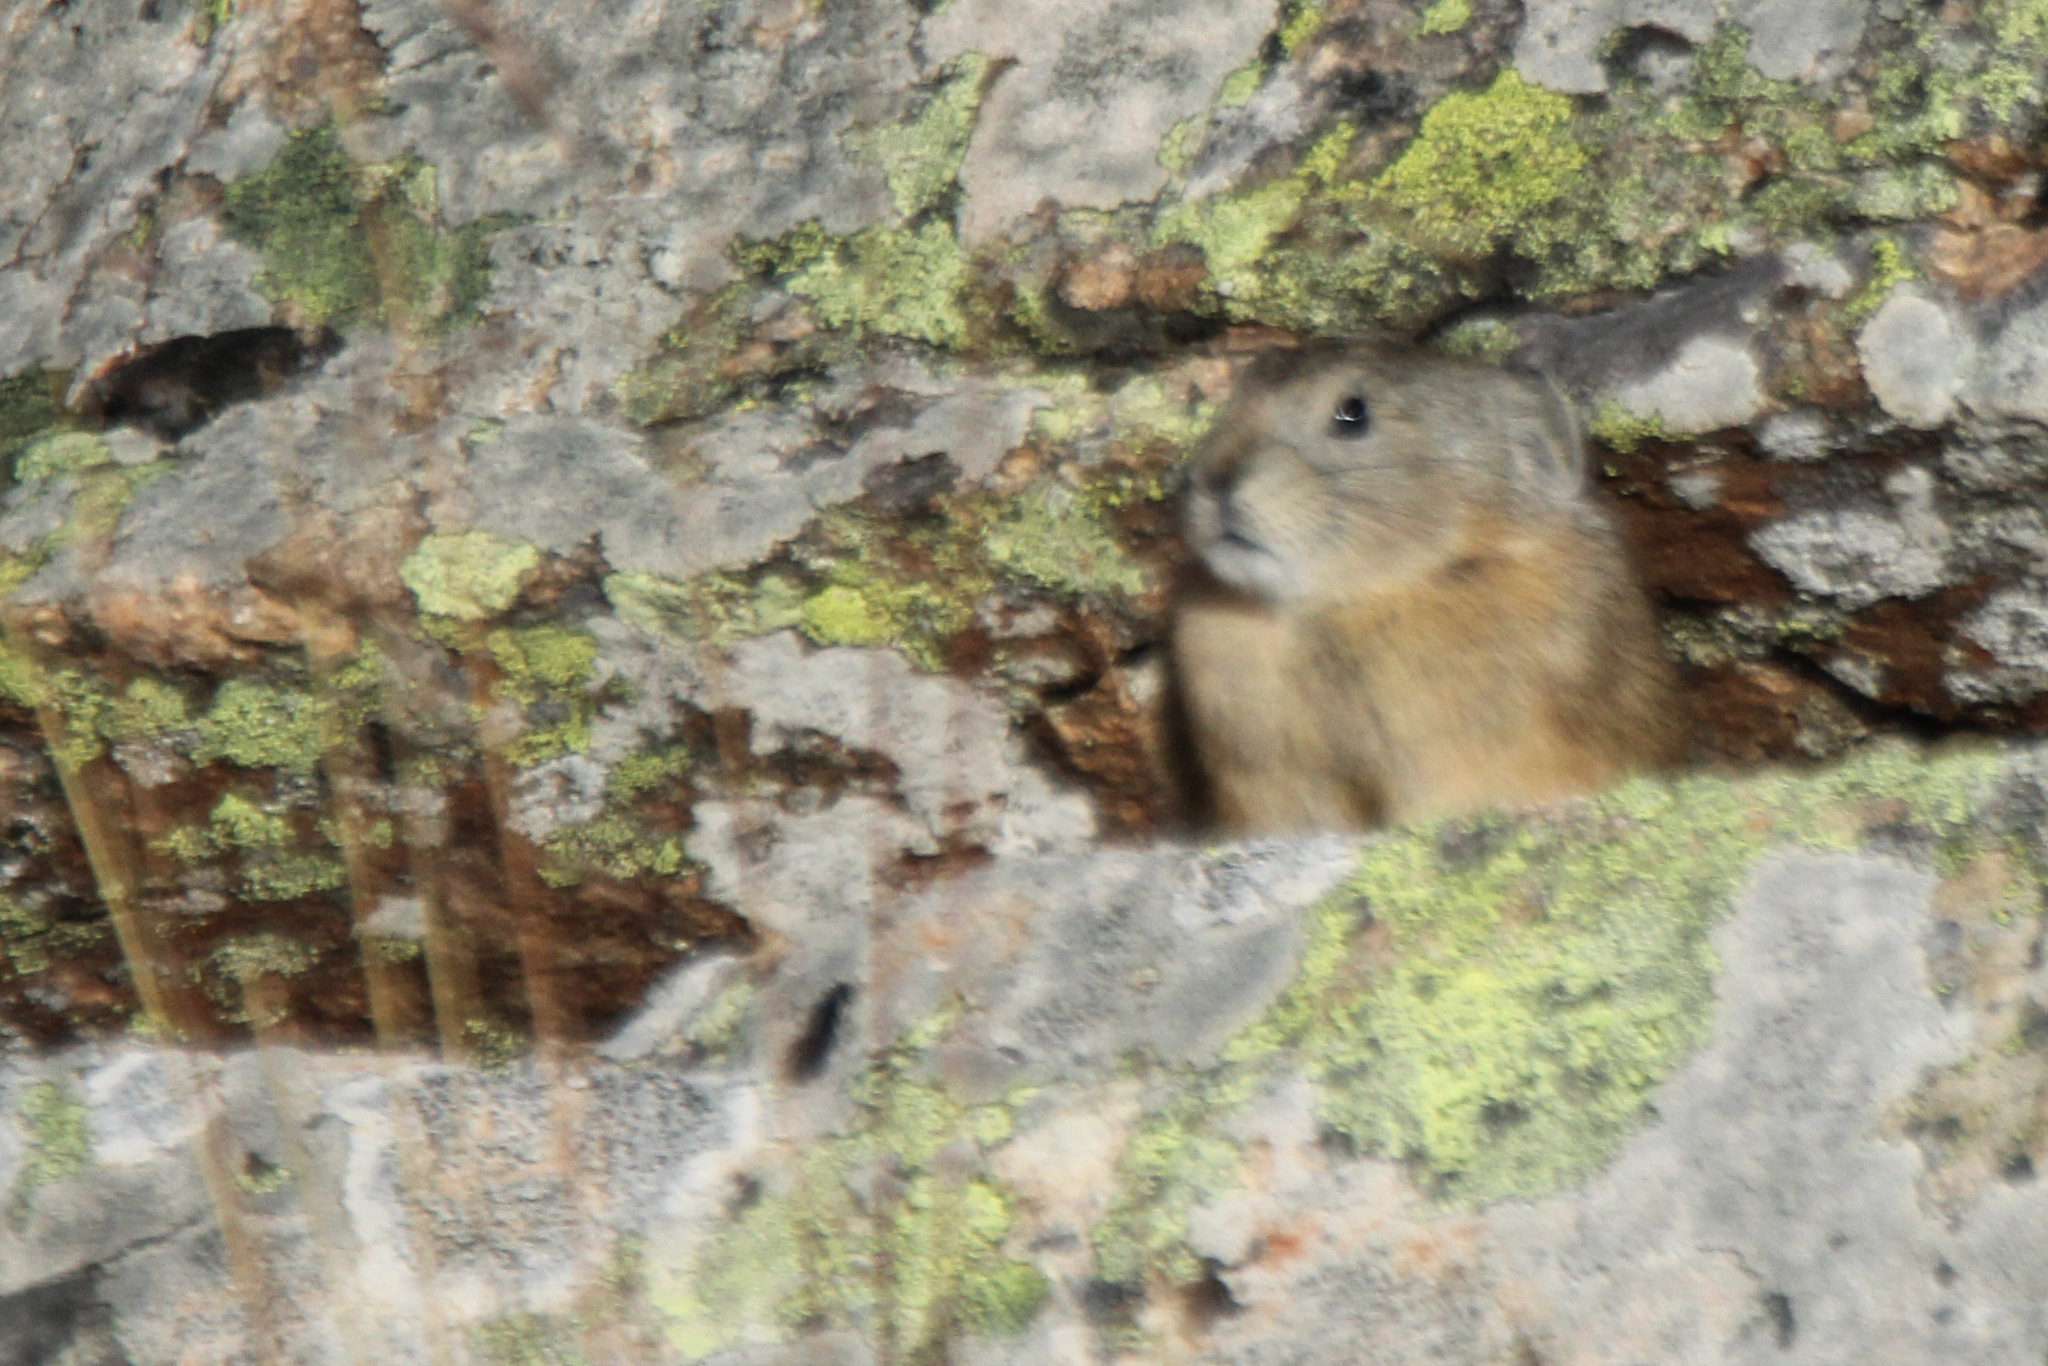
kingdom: Animalia
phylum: Chordata
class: Mammalia
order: Lagomorpha
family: Ochotonidae
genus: Ochotona
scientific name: Ochotona alpina
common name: Alpine pika
